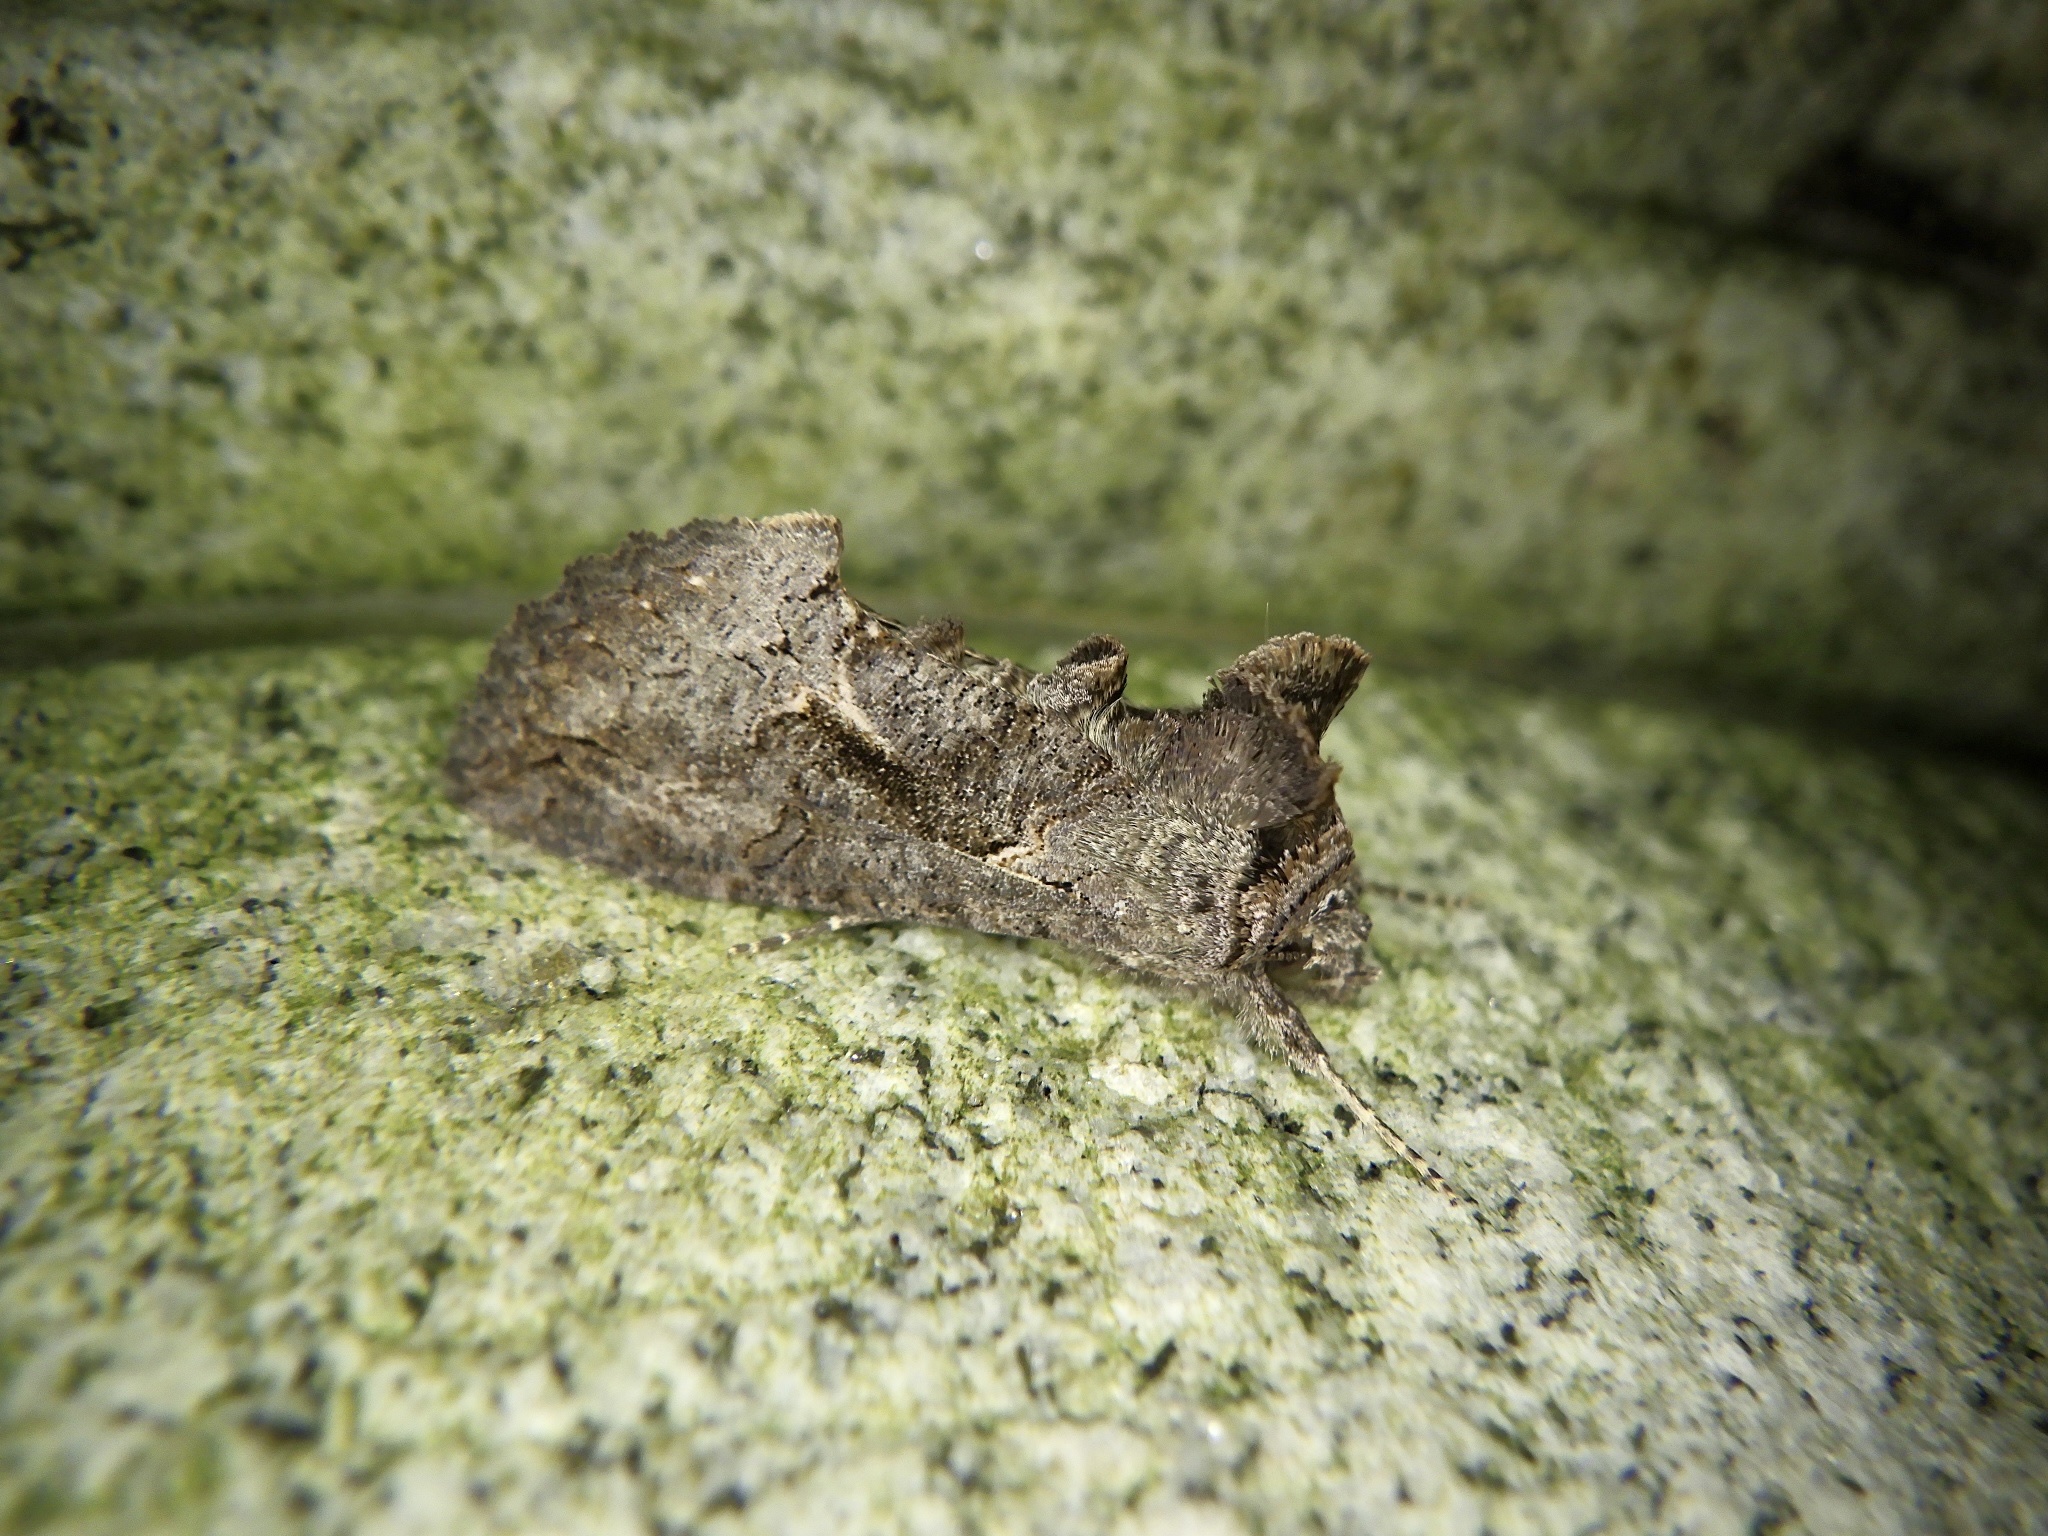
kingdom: Animalia
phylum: Arthropoda
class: Insecta
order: Lepidoptera
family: Noctuidae
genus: Ctenoplusia
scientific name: Ctenoplusia albostriata
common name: Moth
